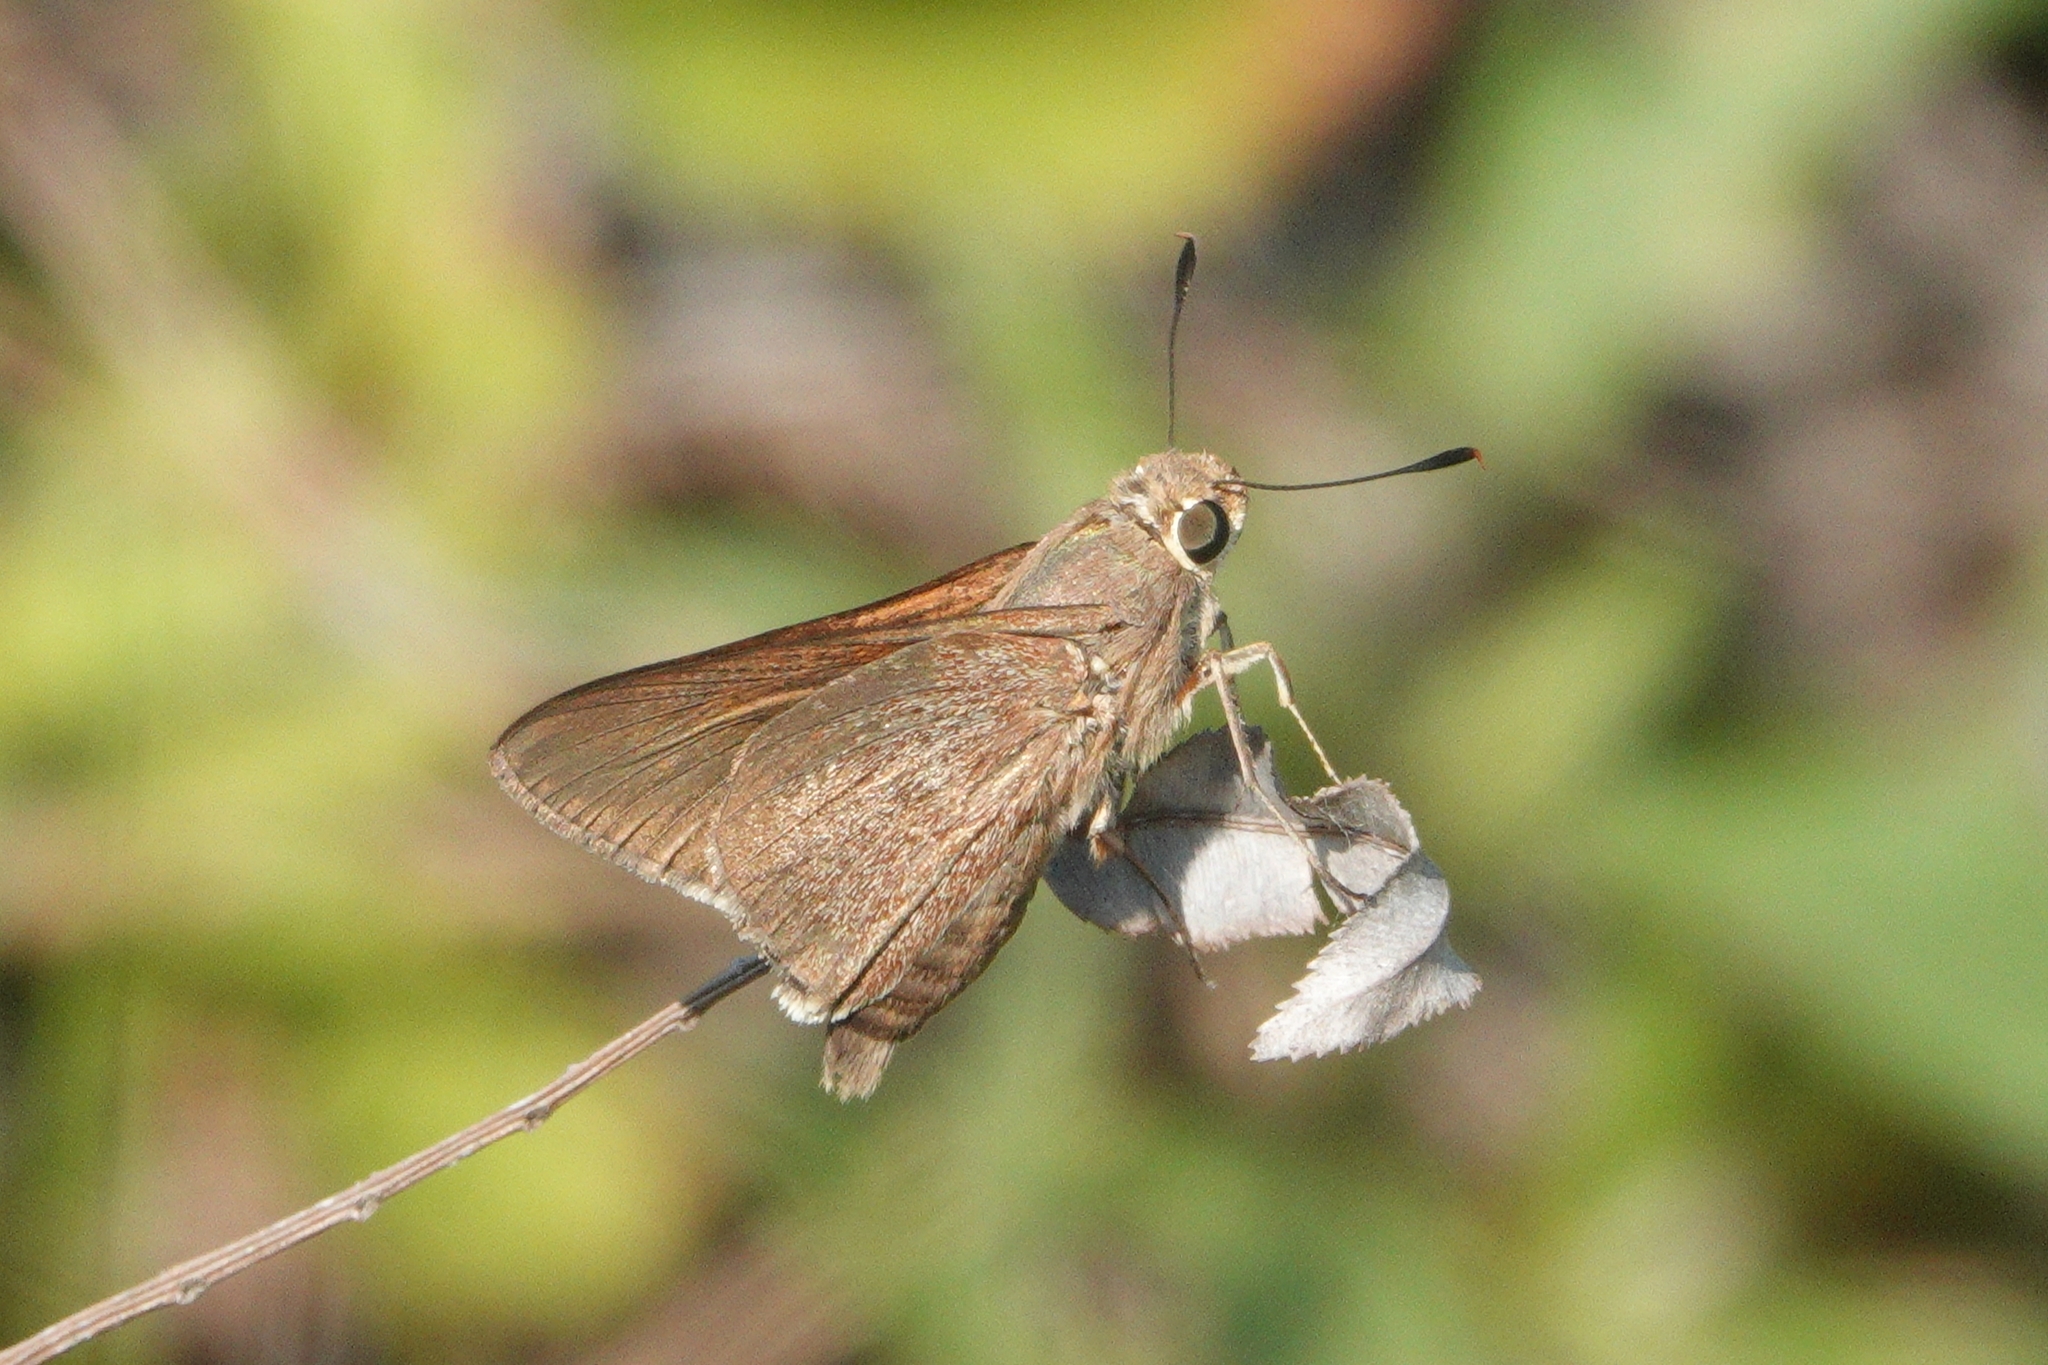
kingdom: Animalia
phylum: Arthropoda
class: Insecta
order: Lepidoptera
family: Hesperiidae
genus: Asbolis
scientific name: Asbolis capucinus
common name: Monk skipper
